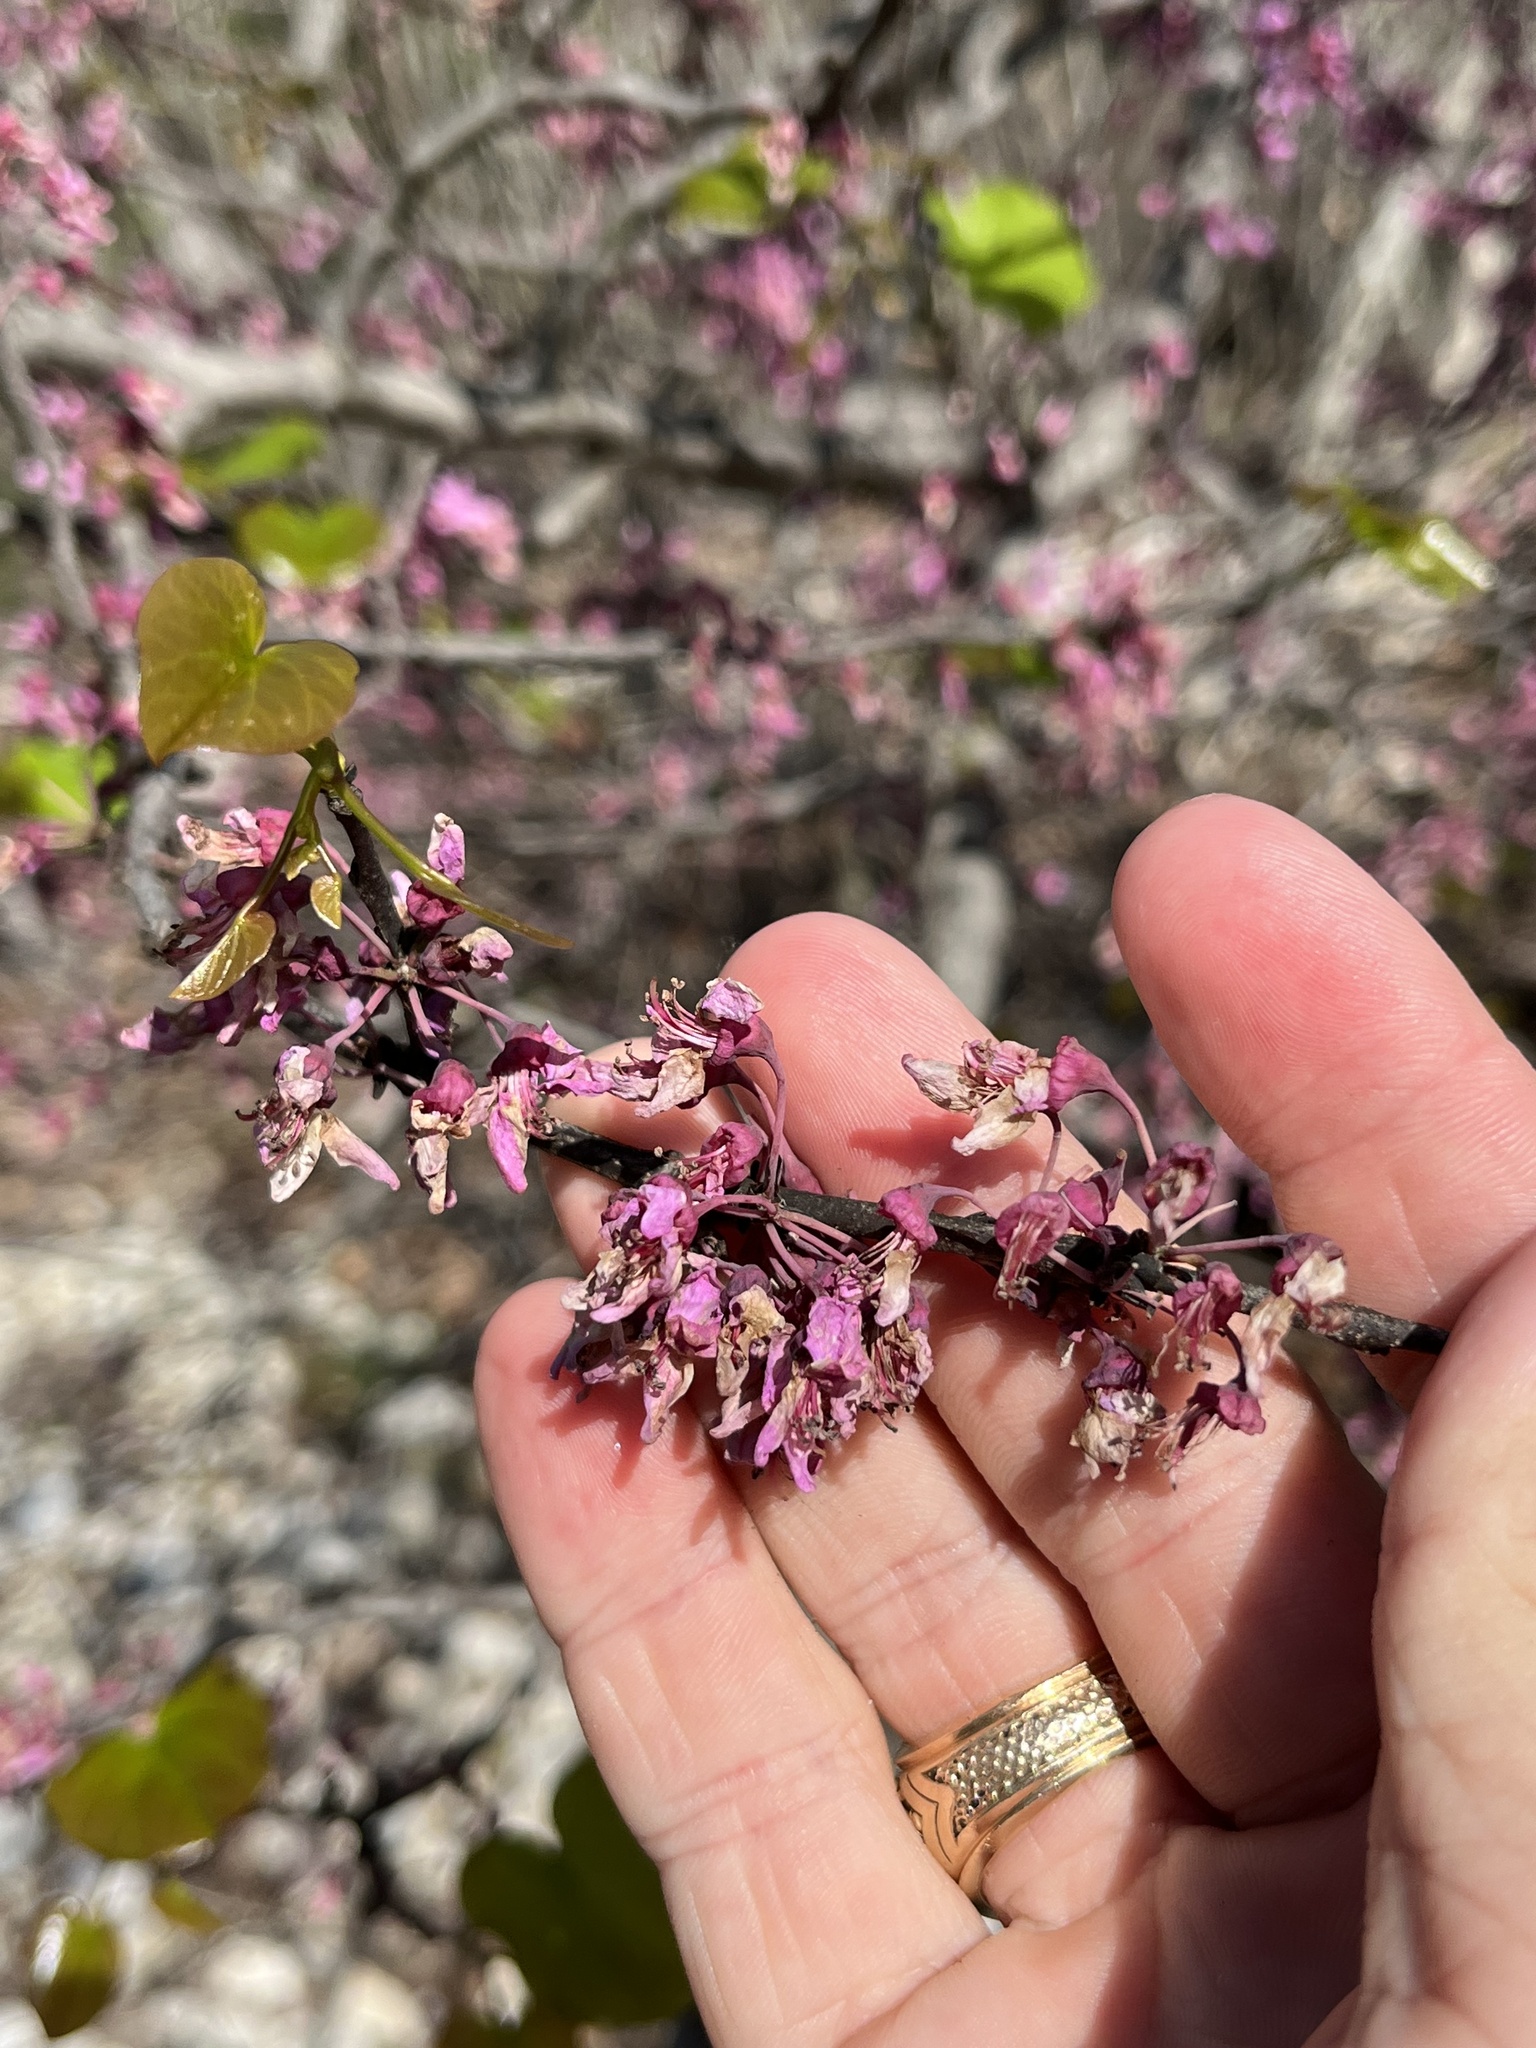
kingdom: Plantae
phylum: Tracheophyta
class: Magnoliopsida
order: Fabales
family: Fabaceae
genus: Cercis
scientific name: Cercis canadensis
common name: Eastern redbud
